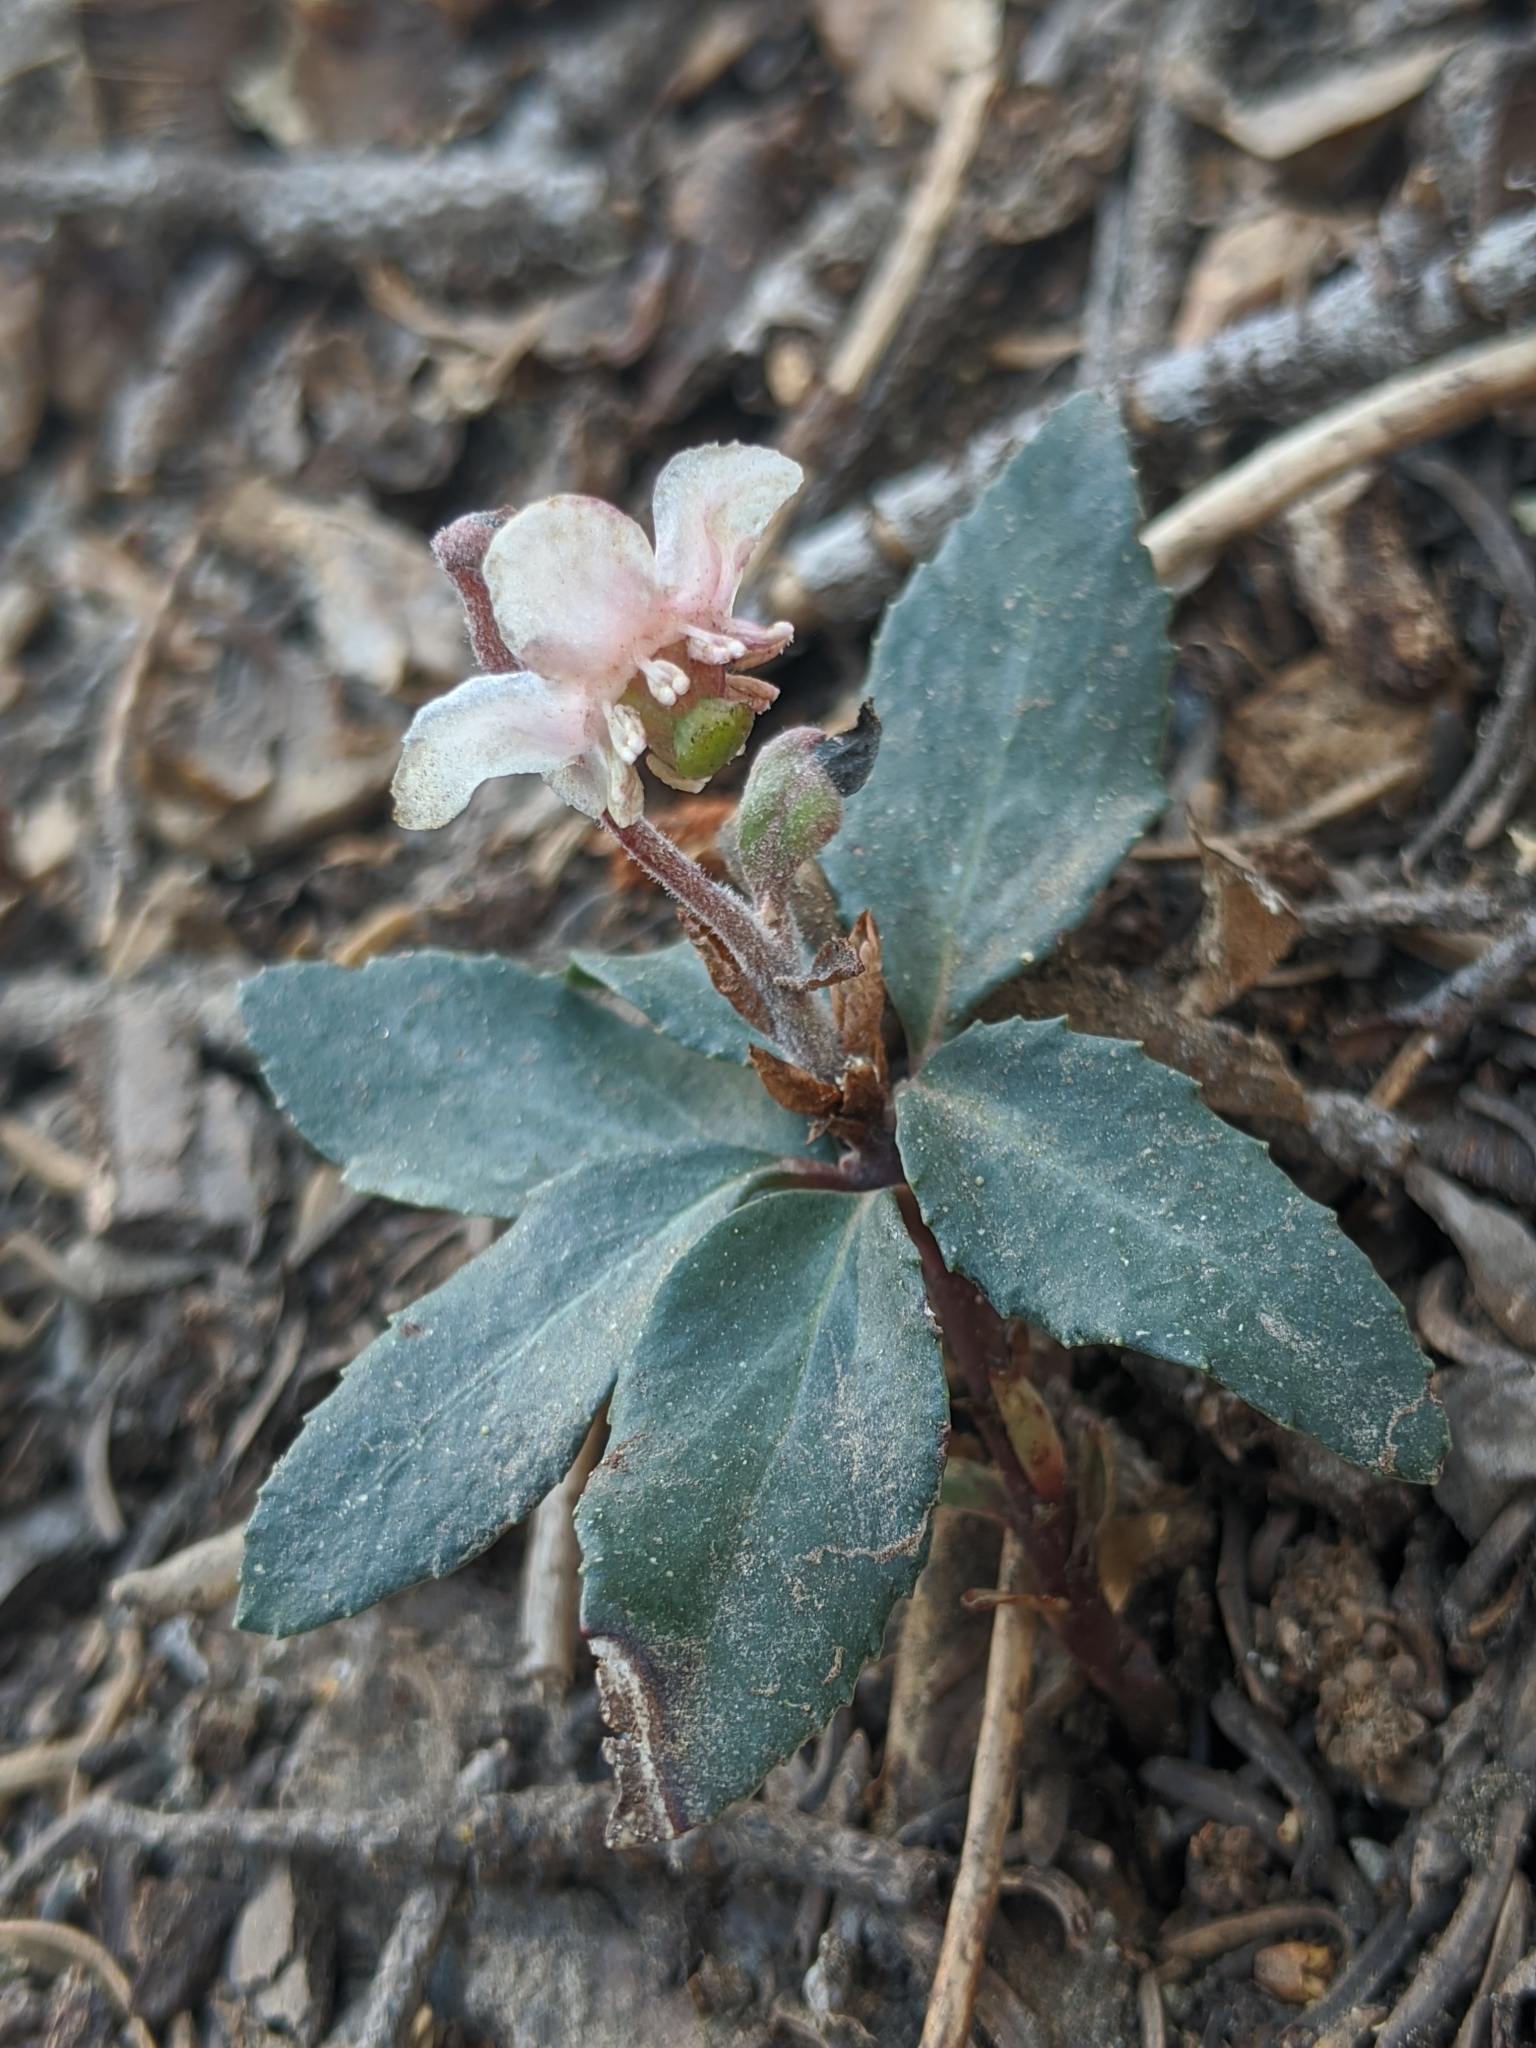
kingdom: Plantae
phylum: Tracheophyta
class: Magnoliopsida
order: Ericales
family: Ericaceae
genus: Chimaphila
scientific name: Chimaphila menziesii
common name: Menzies' pipsissewa
